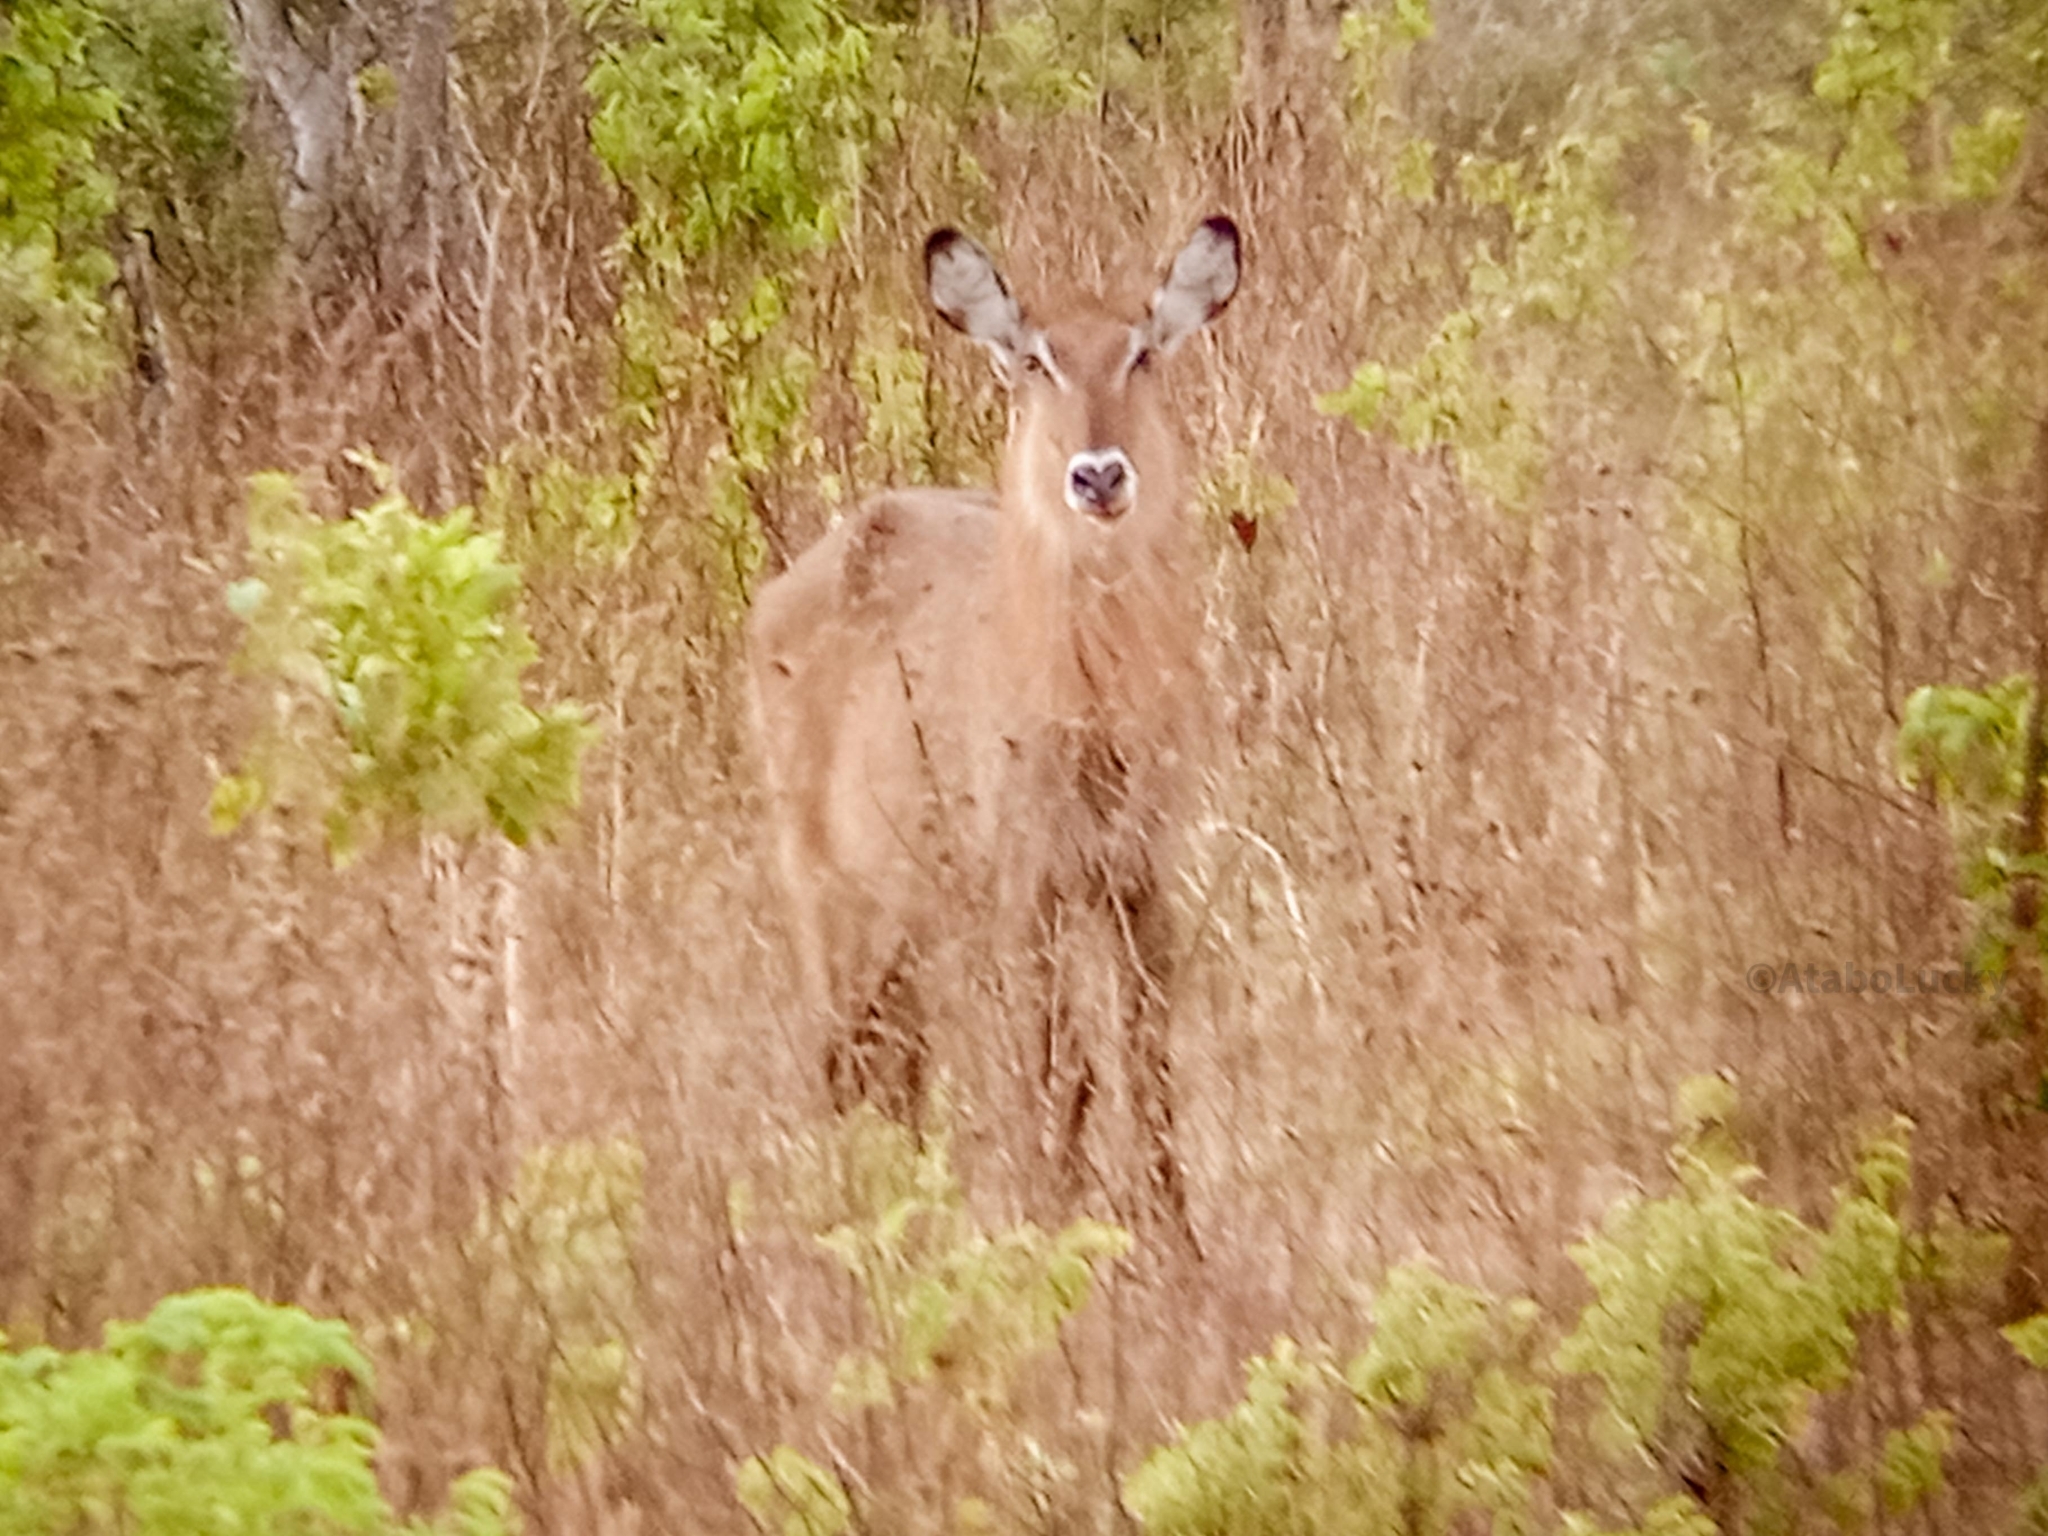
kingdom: Animalia
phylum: Chordata
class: Mammalia
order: Artiodactyla
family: Bovidae
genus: Kobus
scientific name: Kobus ellipsiprymnus
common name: Waterbuck
